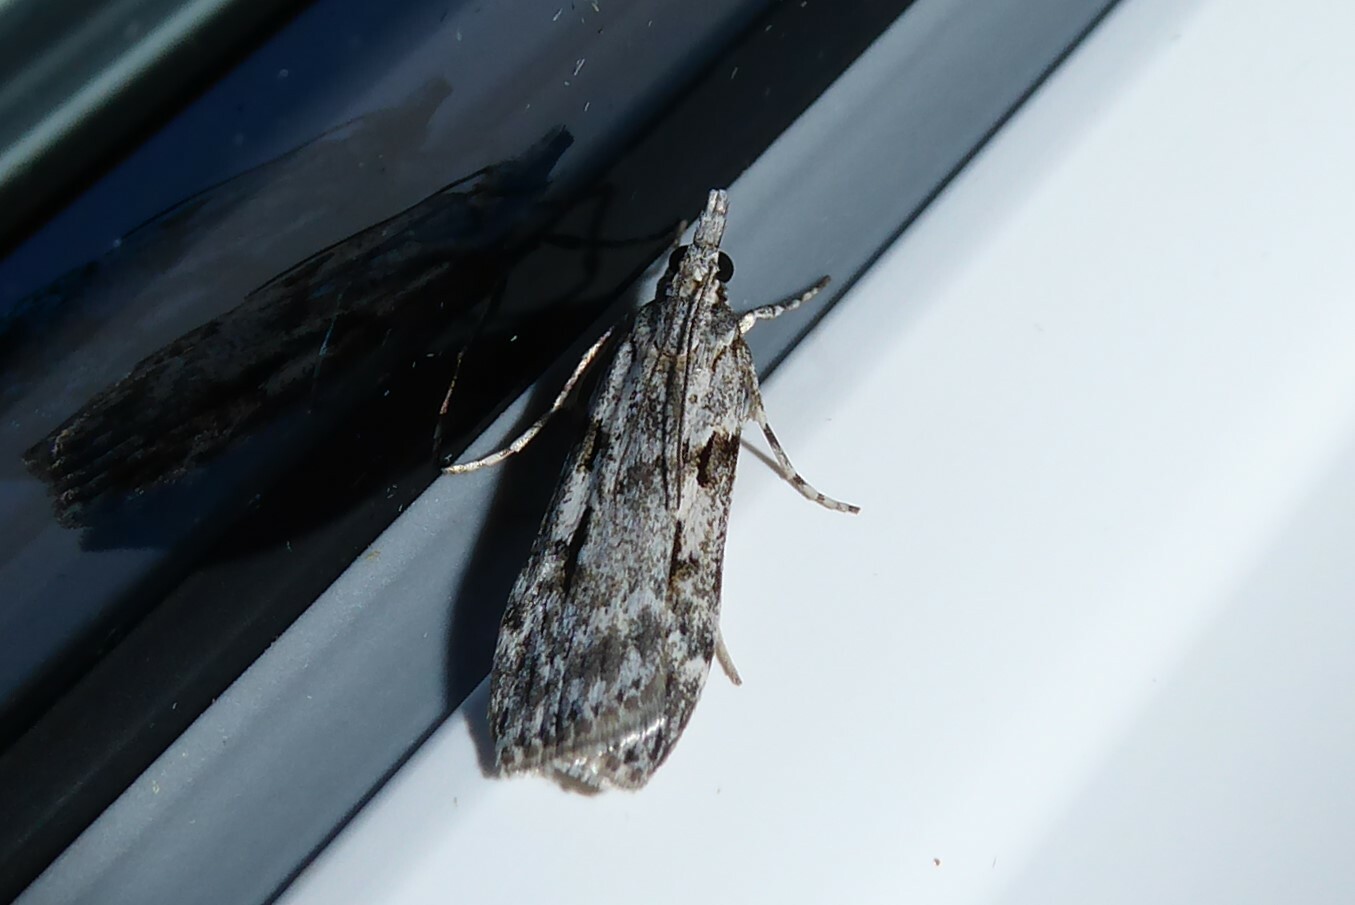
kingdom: Animalia
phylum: Arthropoda
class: Insecta
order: Lepidoptera
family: Crambidae
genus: Scoparia
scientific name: Scoparia halopis
